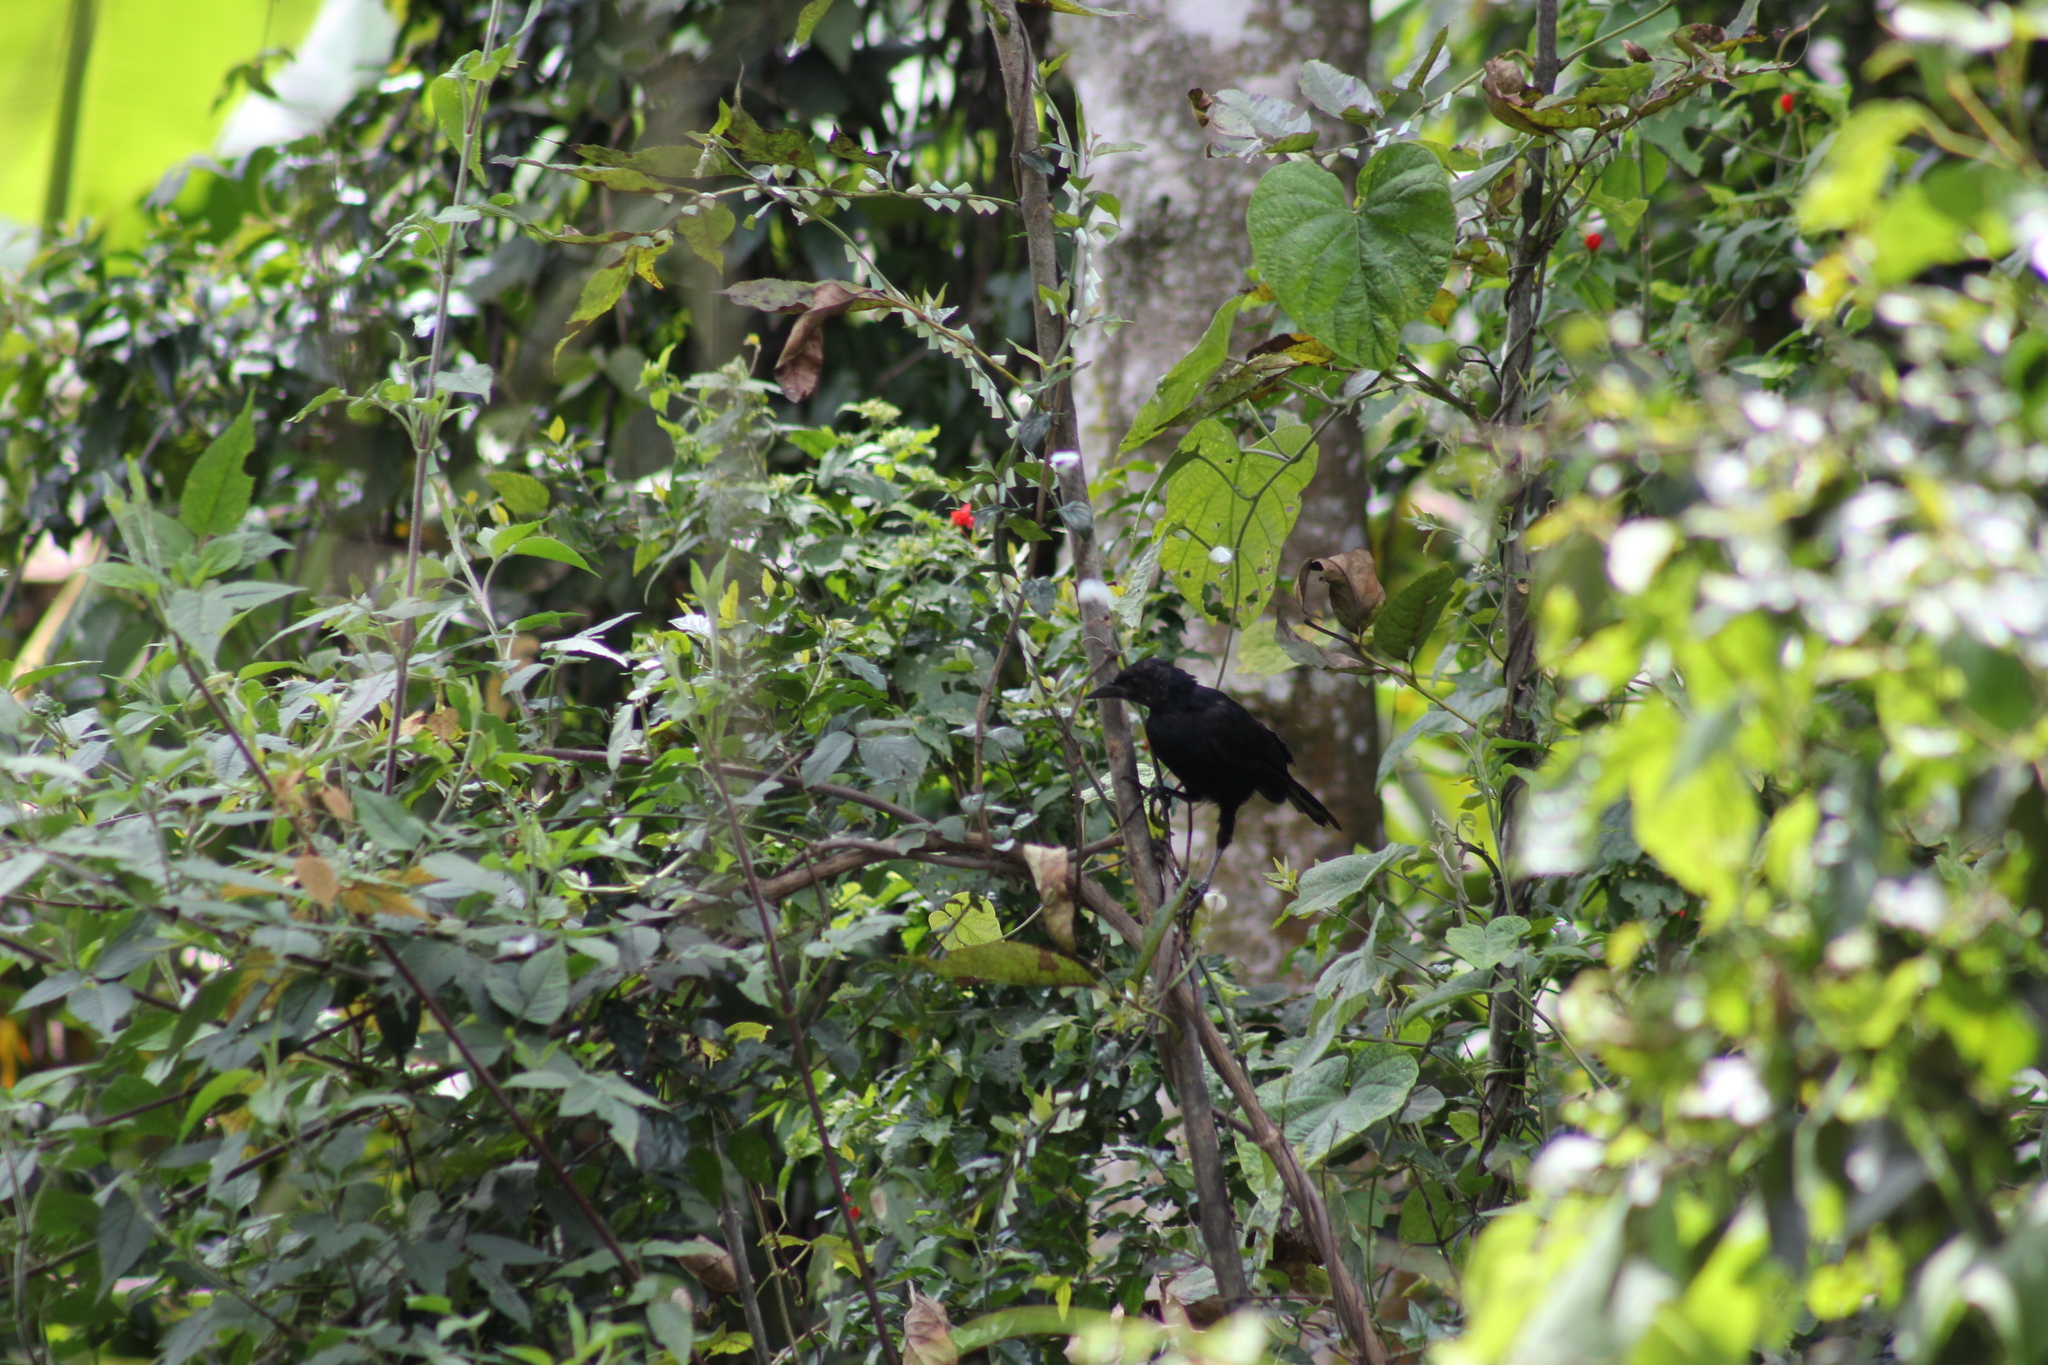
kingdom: Animalia
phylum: Chordata
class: Aves
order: Passeriformes
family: Icteridae
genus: Dives
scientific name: Dives dives
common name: Melodious blackbird
